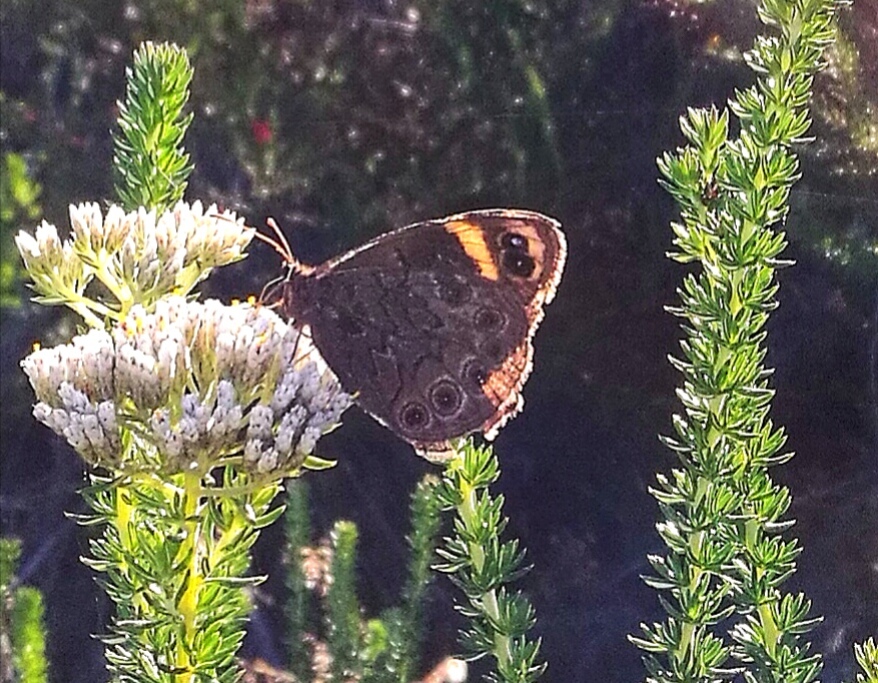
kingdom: Animalia
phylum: Arthropoda
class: Insecta
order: Lepidoptera
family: Nymphalidae
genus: Dira
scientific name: Dira clytus
